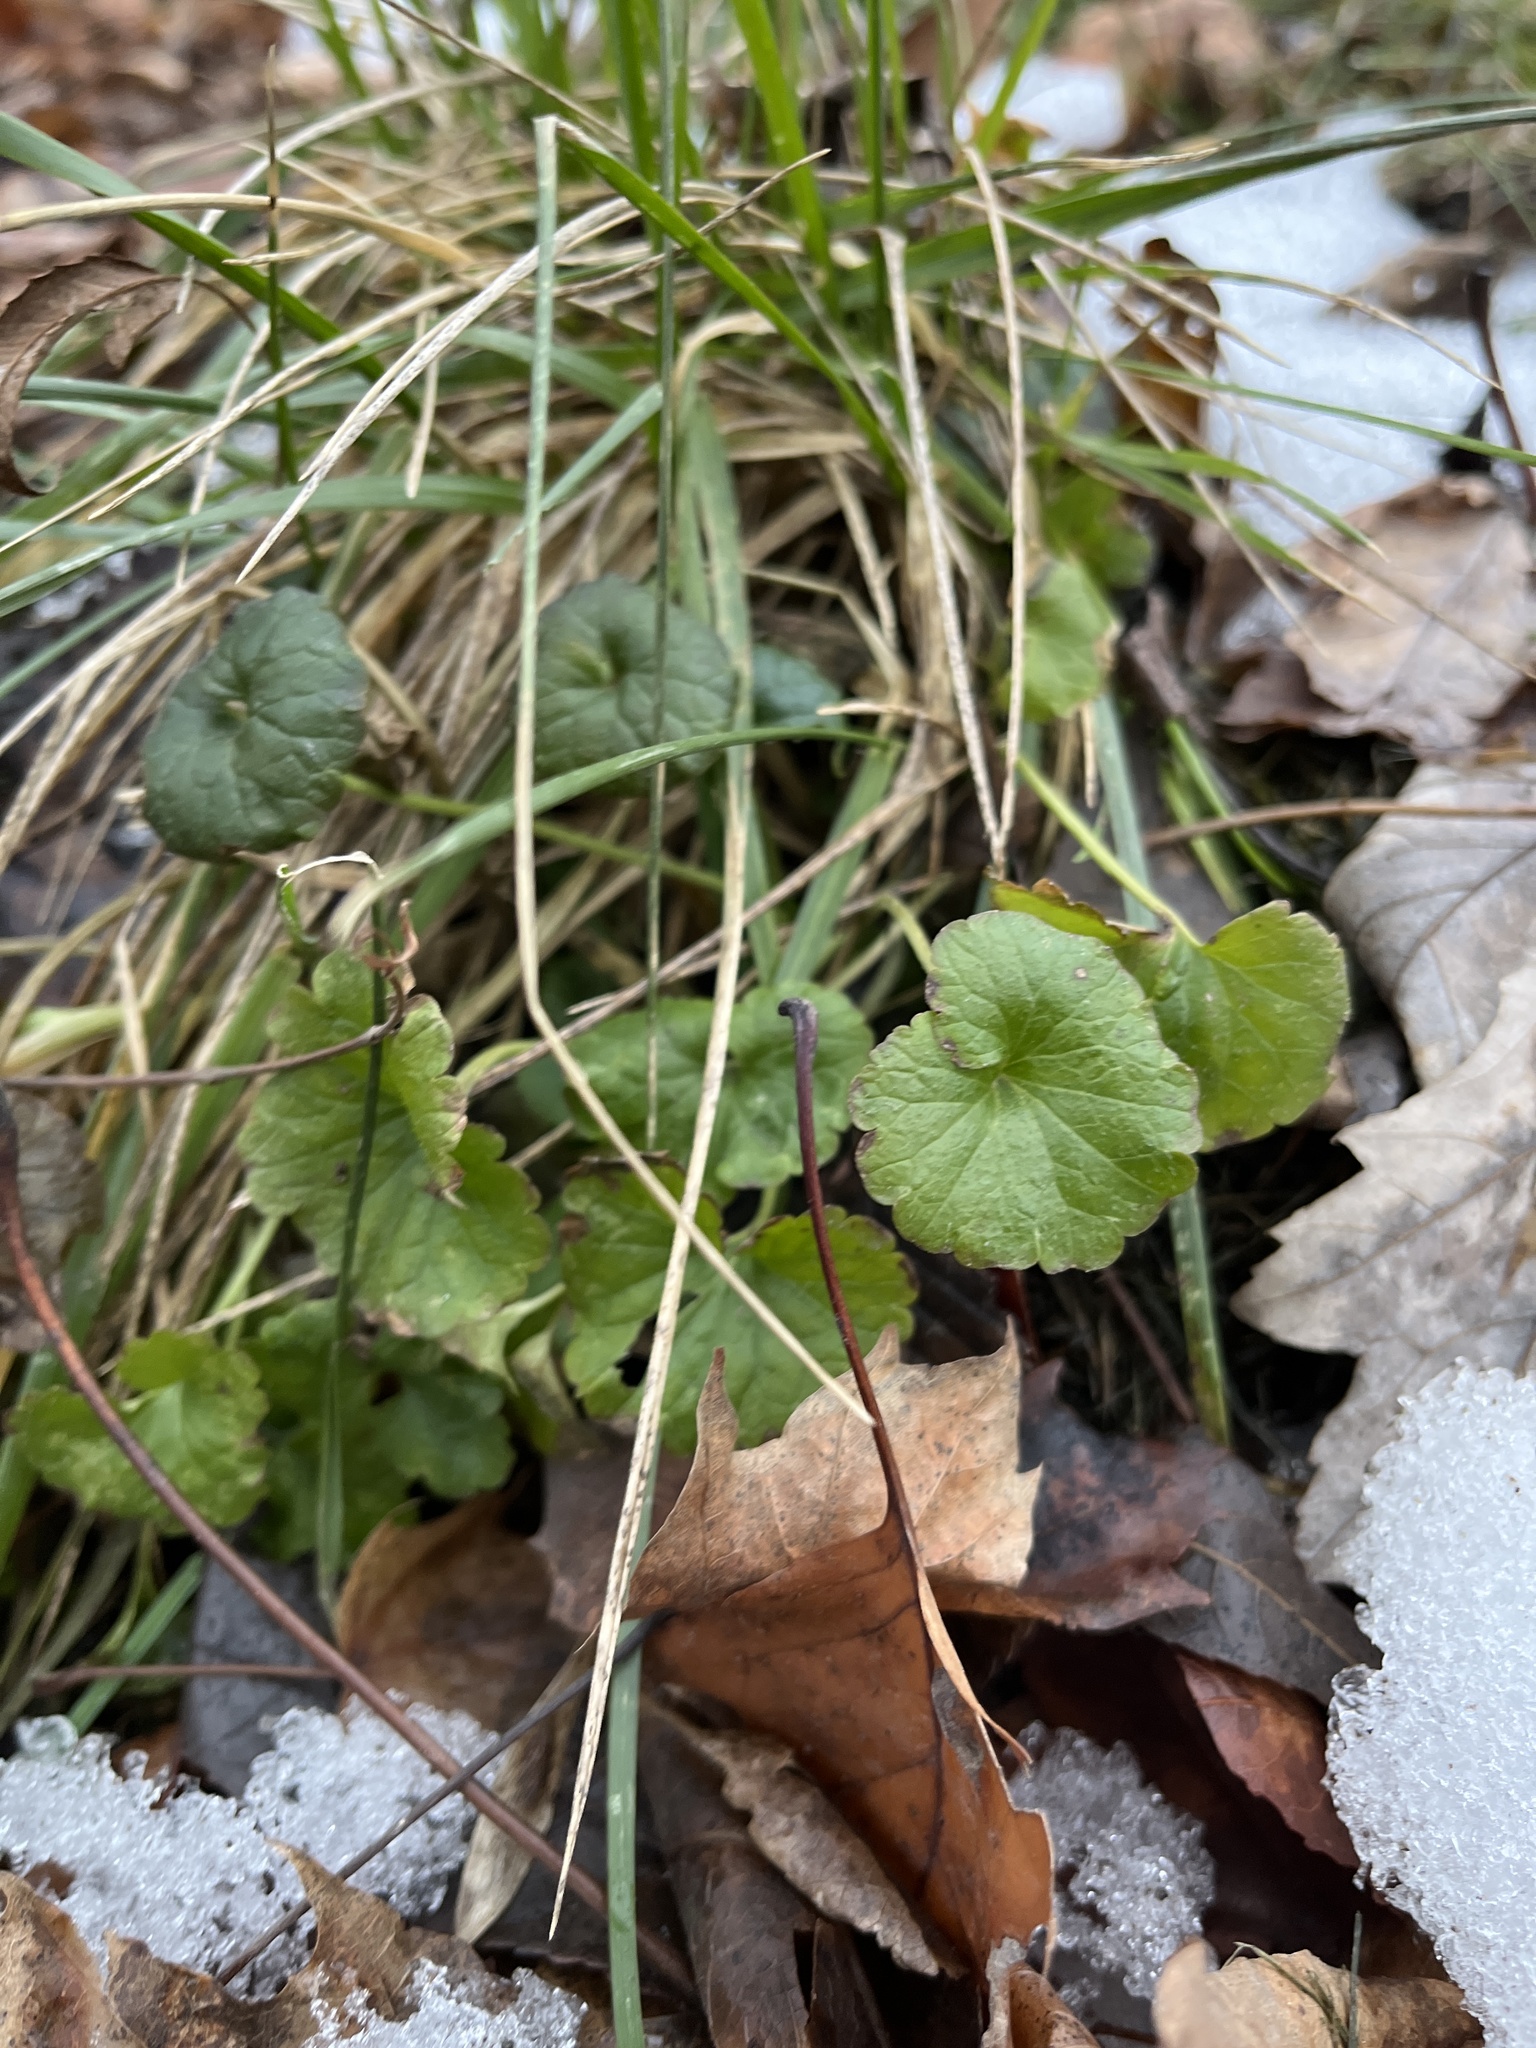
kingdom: Plantae
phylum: Tracheophyta
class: Magnoliopsida
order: Lamiales
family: Lamiaceae
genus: Glechoma
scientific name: Glechoma hederacea
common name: Ground ivy
